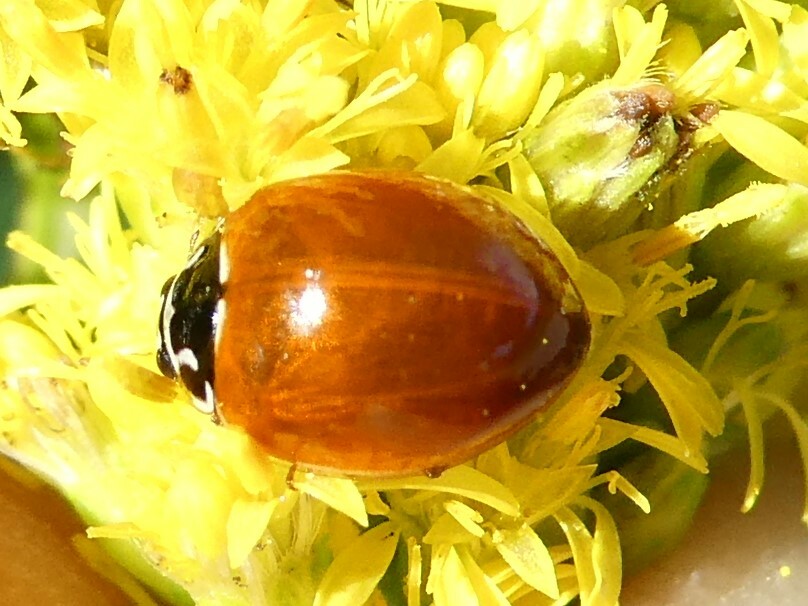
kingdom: Animalia
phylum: Arthropoda
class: Insecta
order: Coleoptera
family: Coccinellidae
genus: Cycloneda
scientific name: Cycloneda munda
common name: Polished lady beetle
